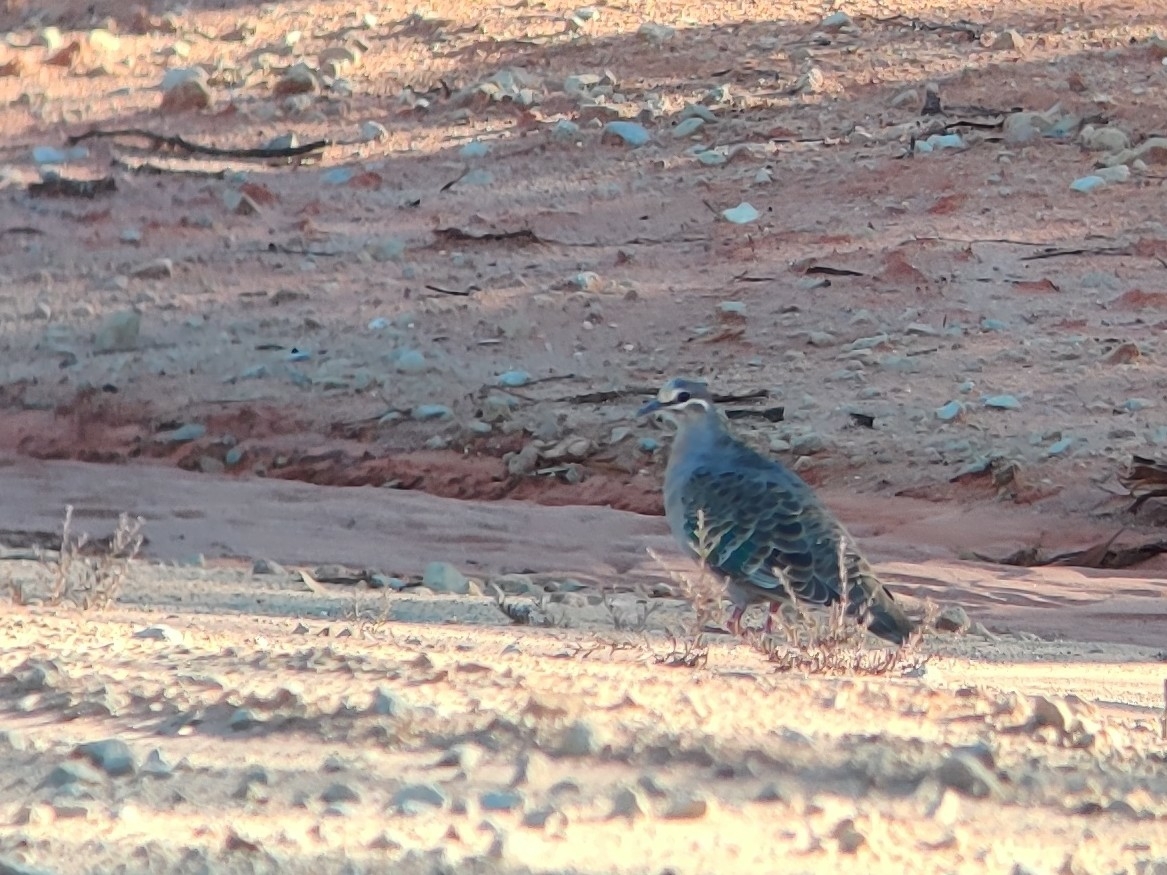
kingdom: Animalia
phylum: Chordata
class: Aves
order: Columbiformes
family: Columbidae
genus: Phaps
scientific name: Phaps chalcoptera
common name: Common bronzewing
